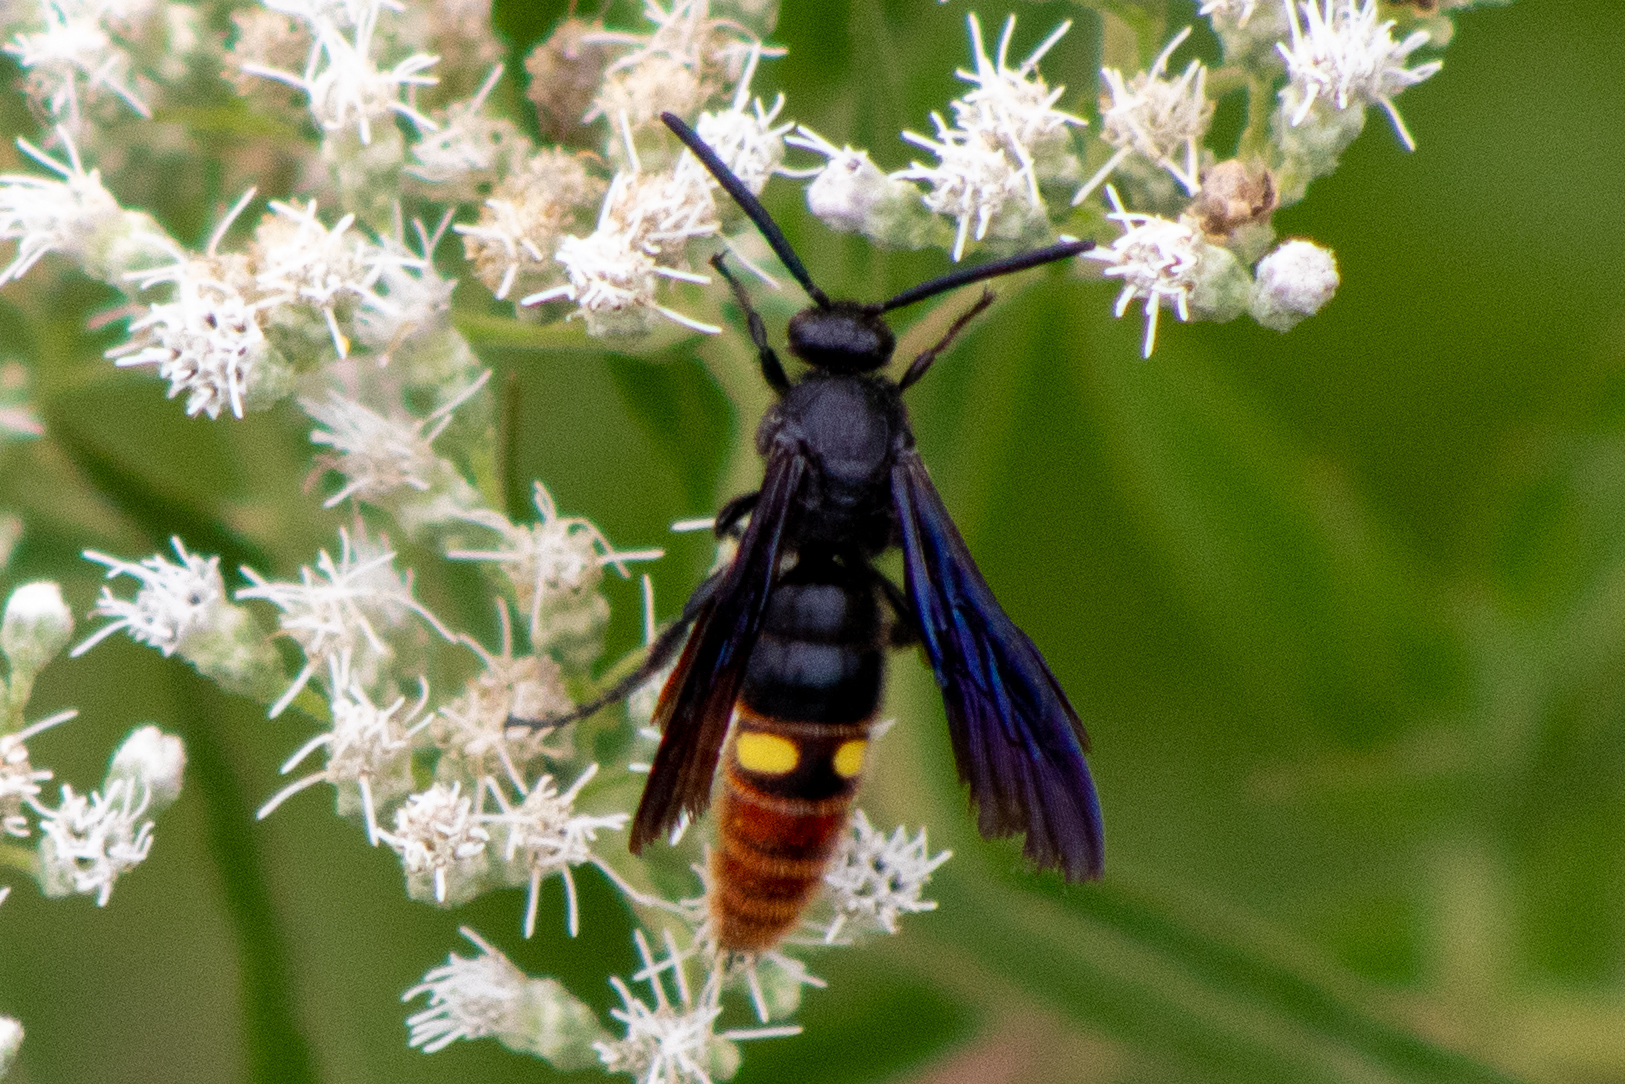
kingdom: Animalia
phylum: Arthropoda
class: Insecta
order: Hymenoptera
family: Scoliidae
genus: Scolia
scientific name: Scolia dubia
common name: Blue-winged scoliid wasp
